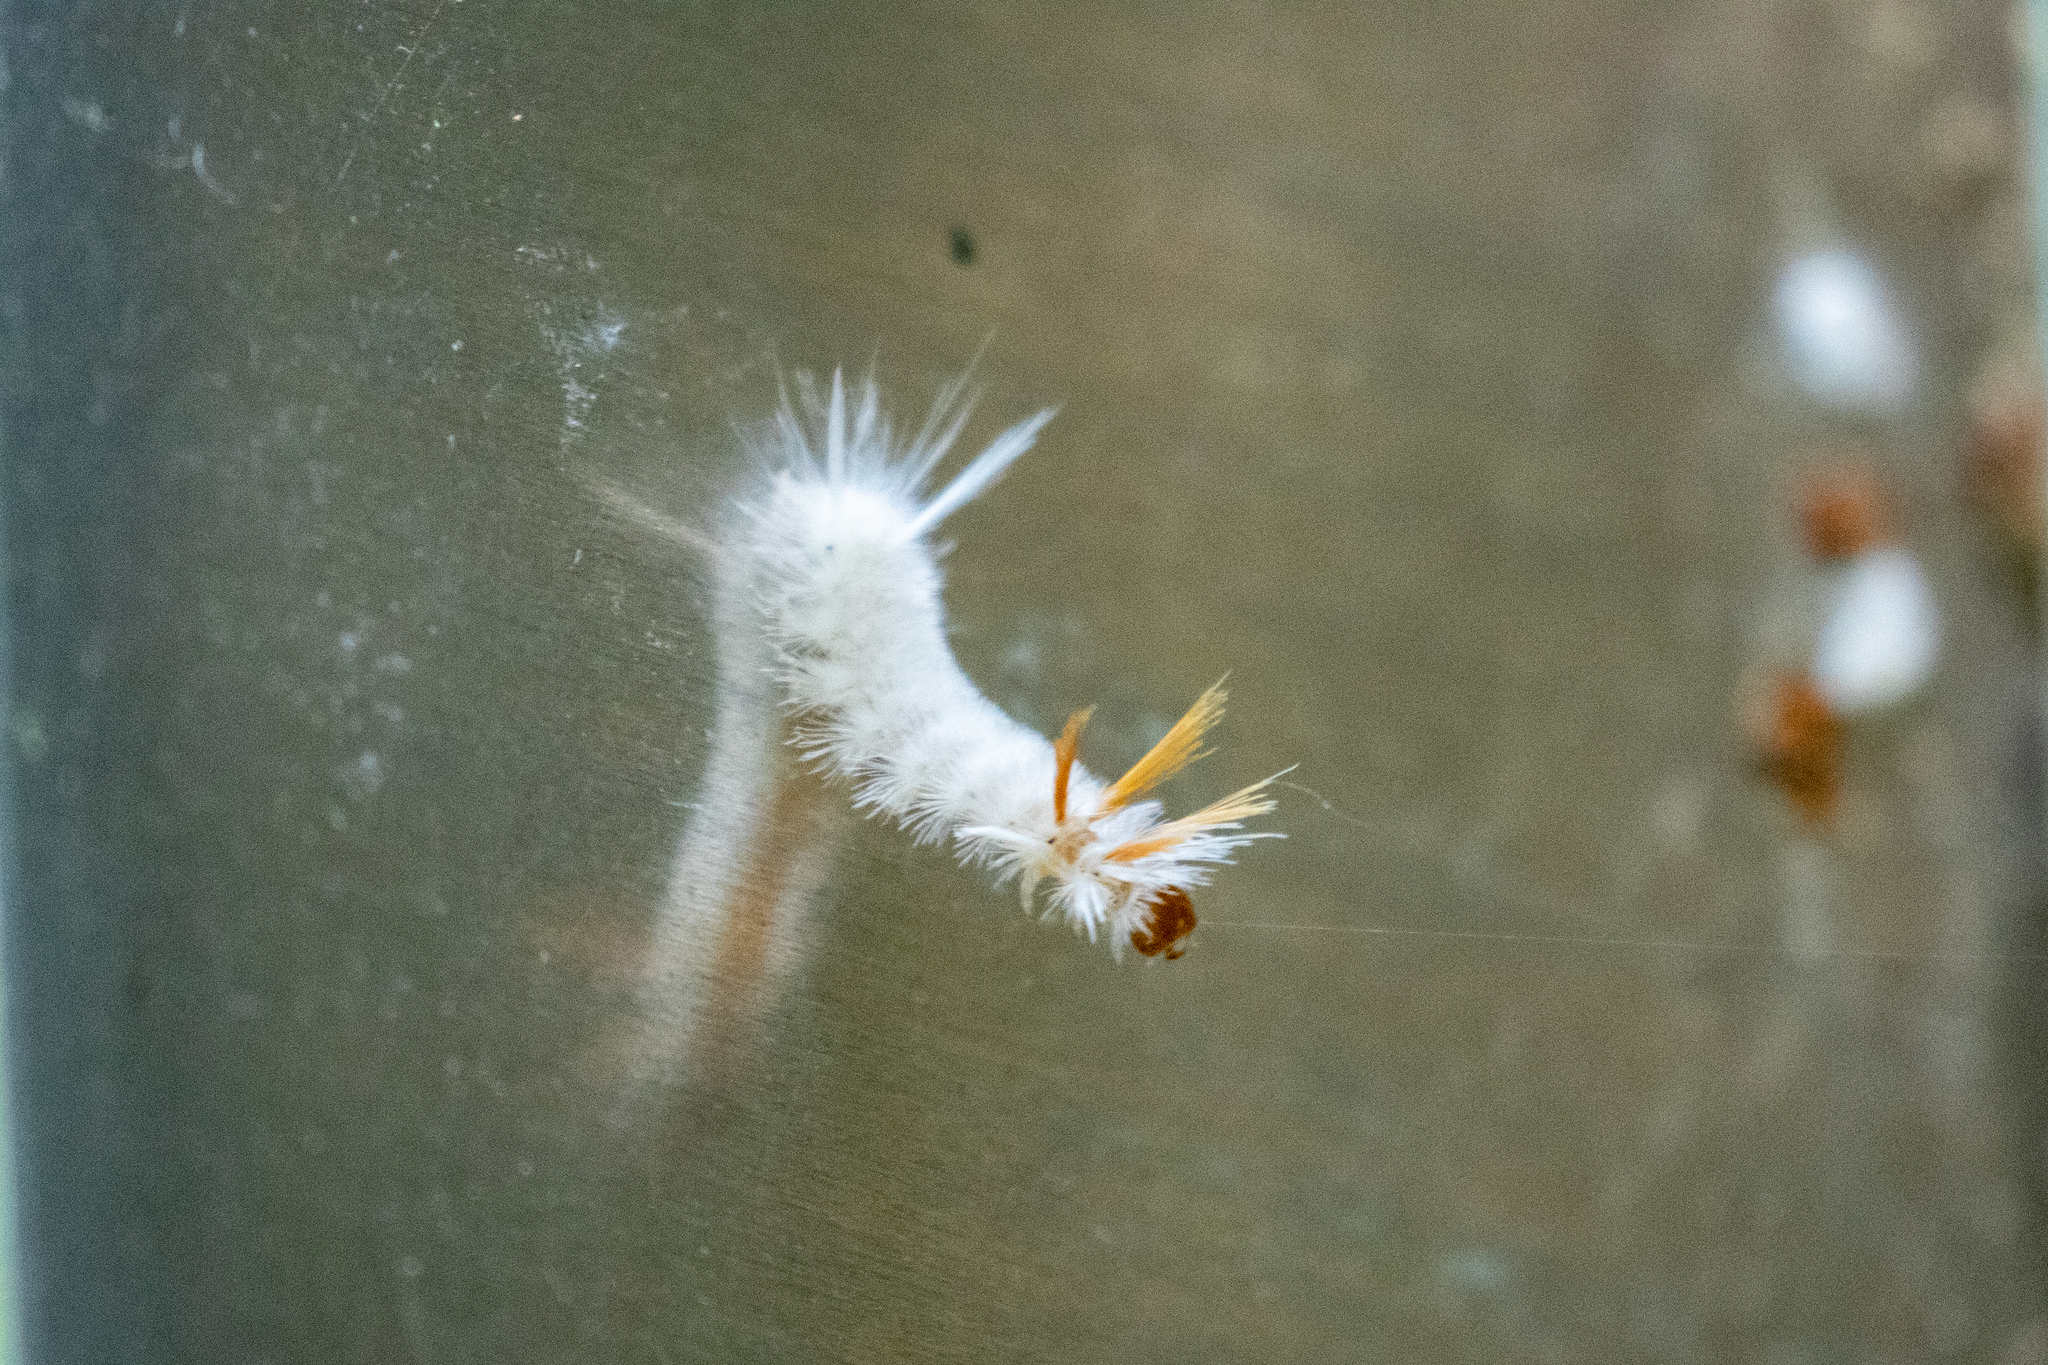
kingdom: Animalia
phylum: Arthropoda
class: Insecta
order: Lepidoptera
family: Erebidae
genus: Halysidota
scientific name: Halysidota harrisii
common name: Sycamore tussock moth
